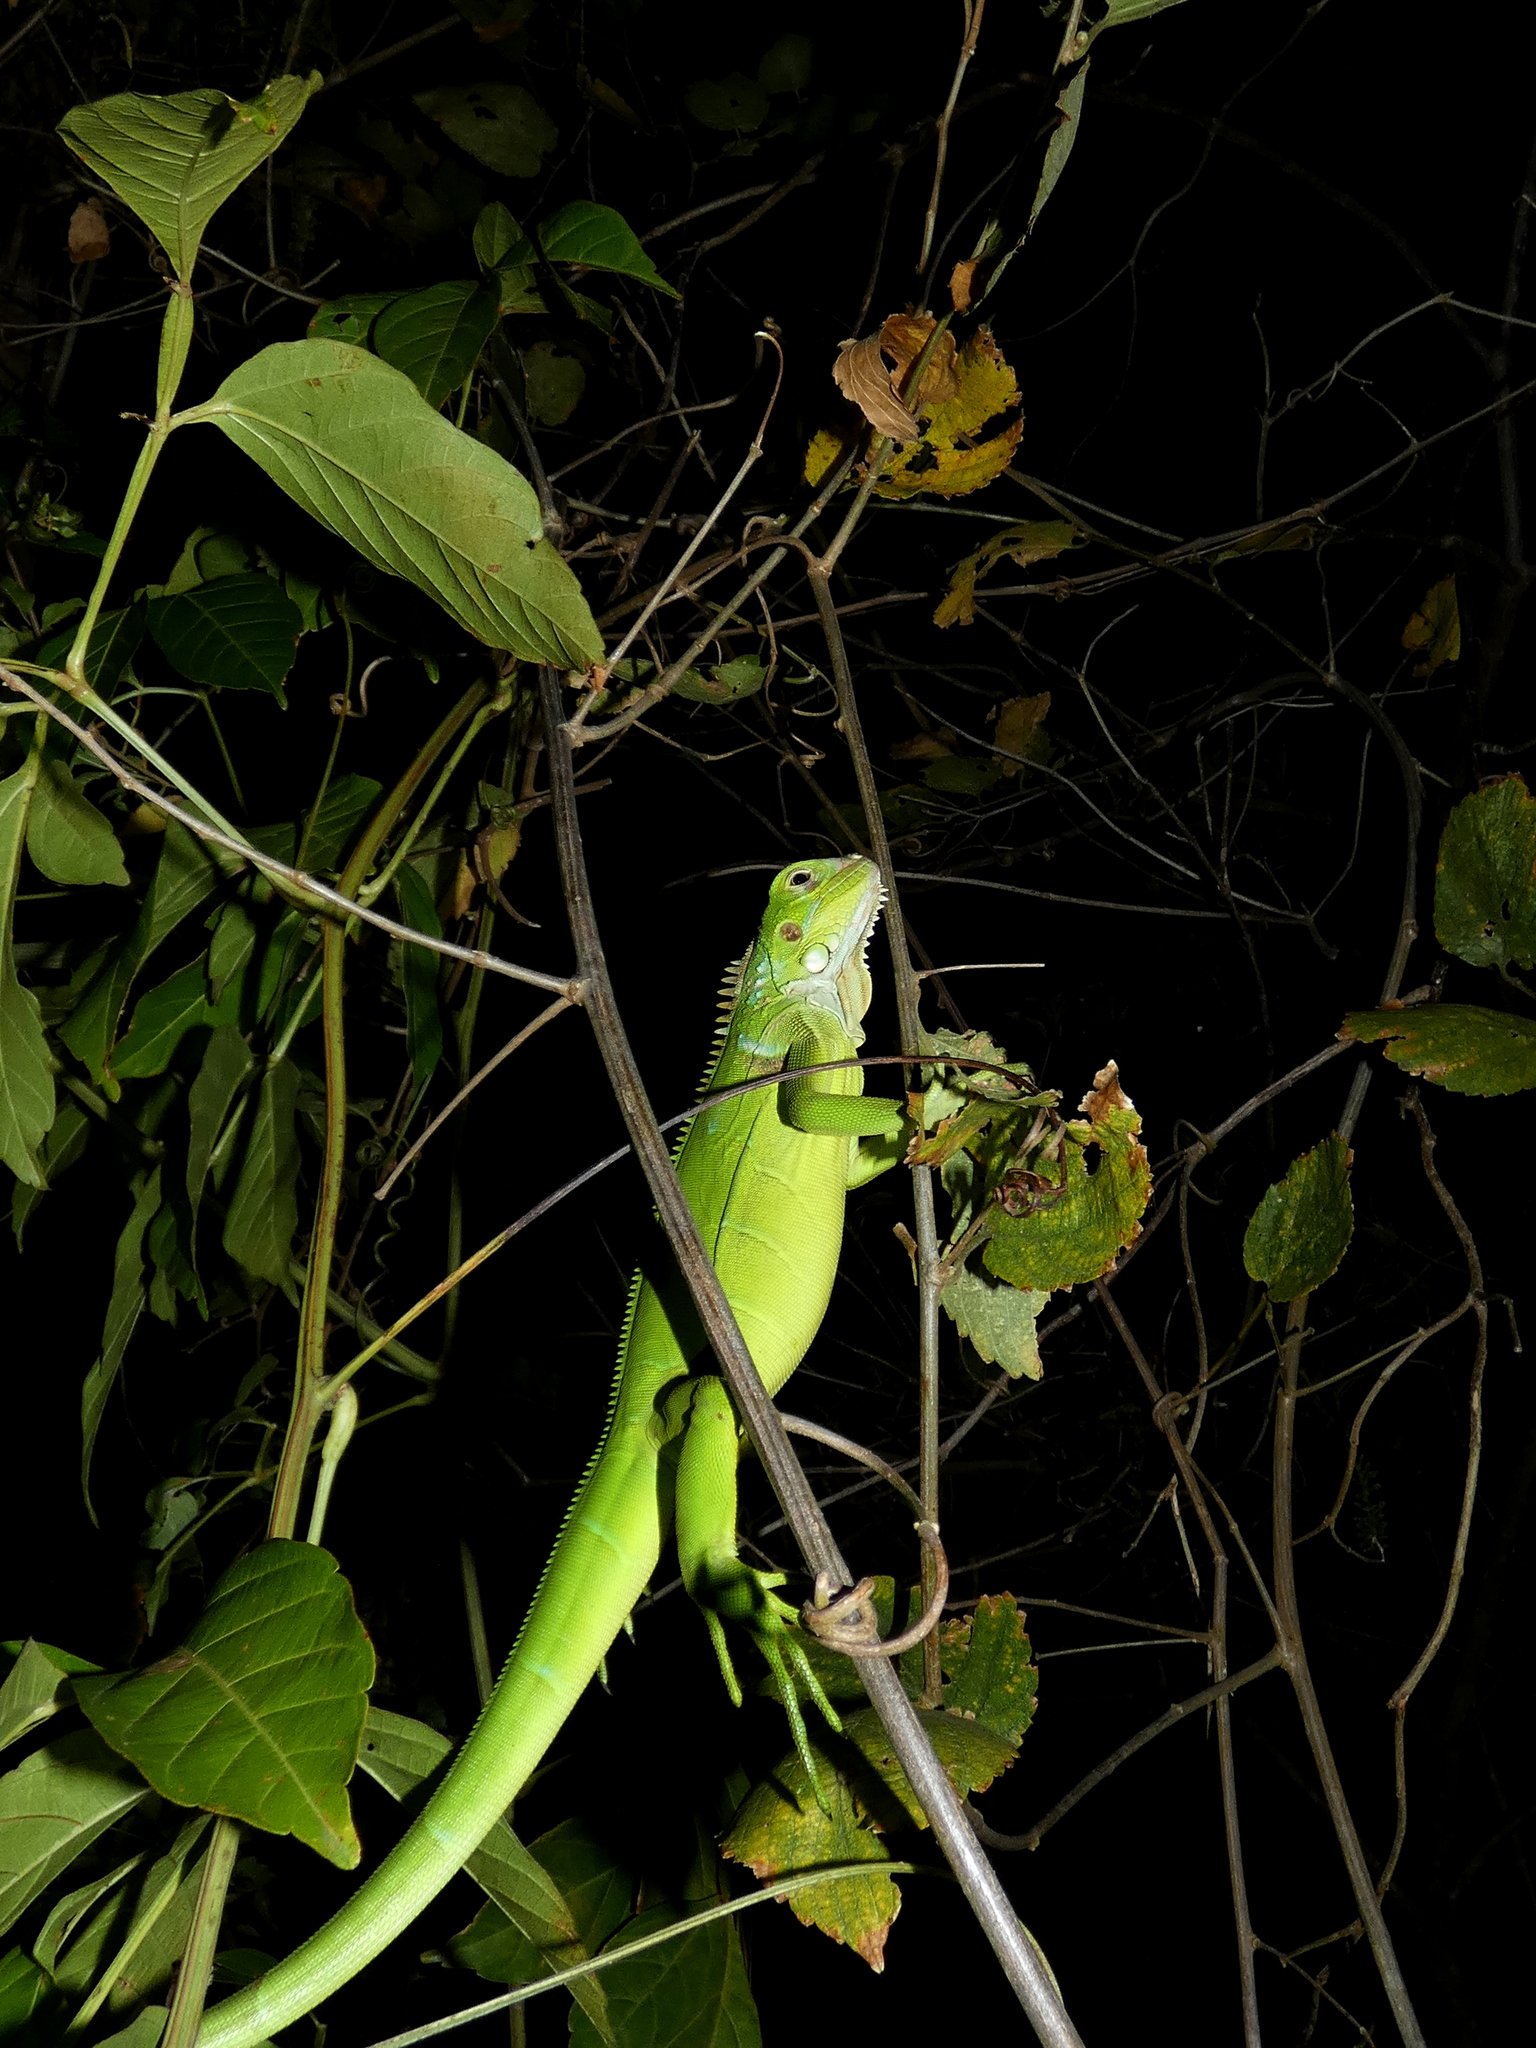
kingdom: Animalia
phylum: Chordata
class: Squamata
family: Iguanidae
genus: Iguana
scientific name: Iguana iguana
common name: Green iguana
